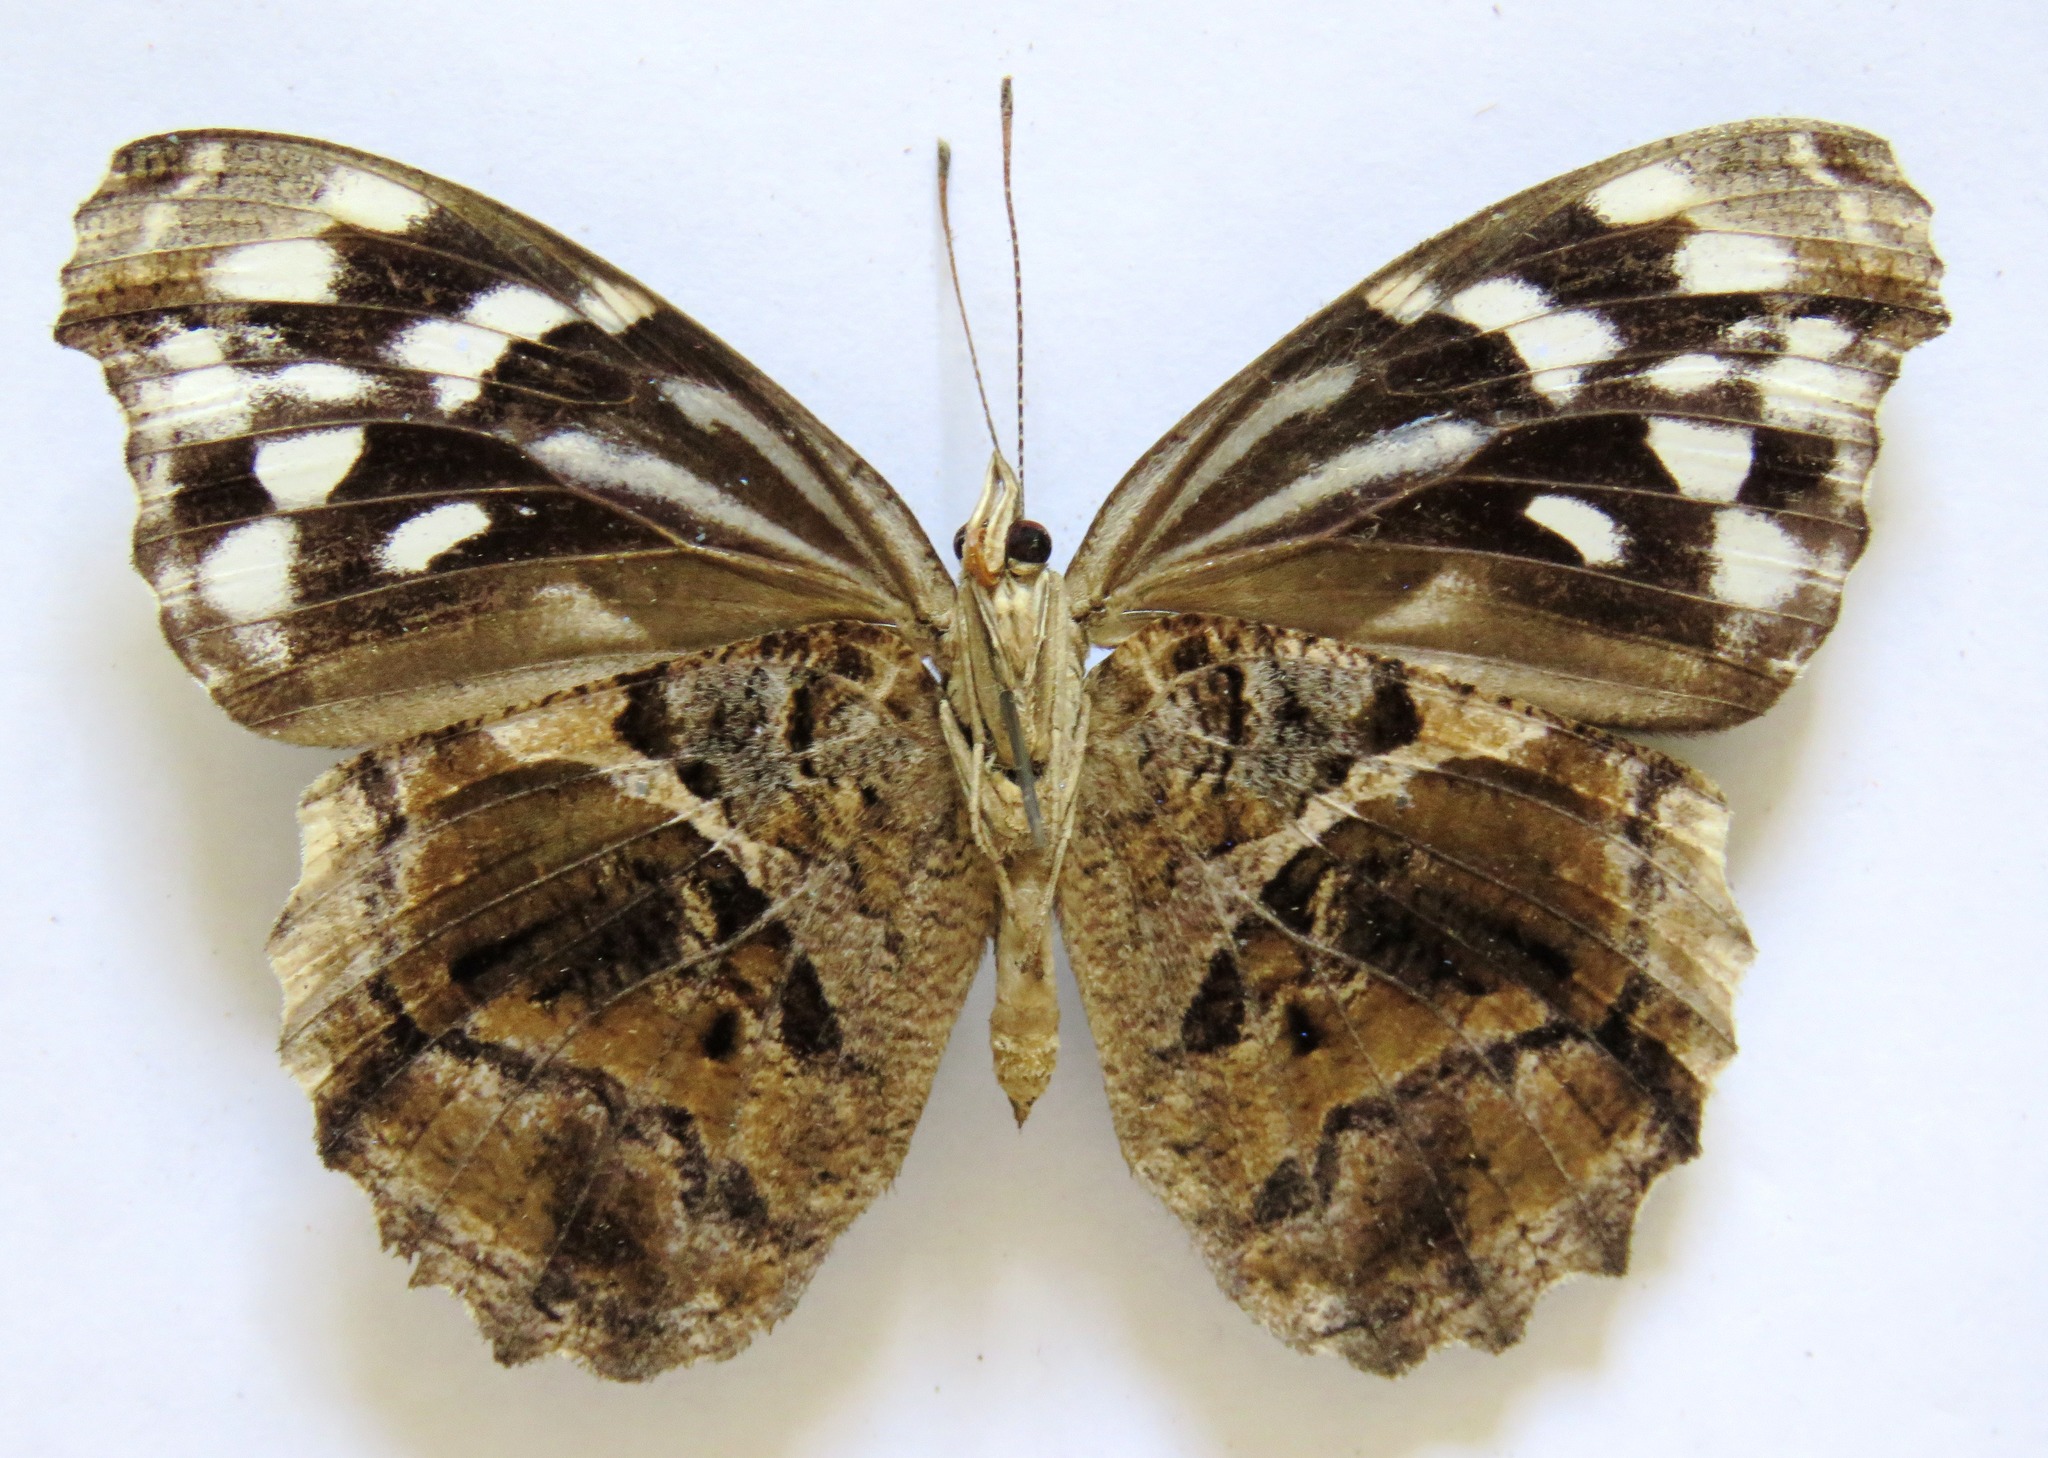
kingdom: Animalia
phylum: Arthropoda
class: Insecta
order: Lepidoptera
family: Nymphalidae
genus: Myscelia
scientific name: Myscelia ethusa
